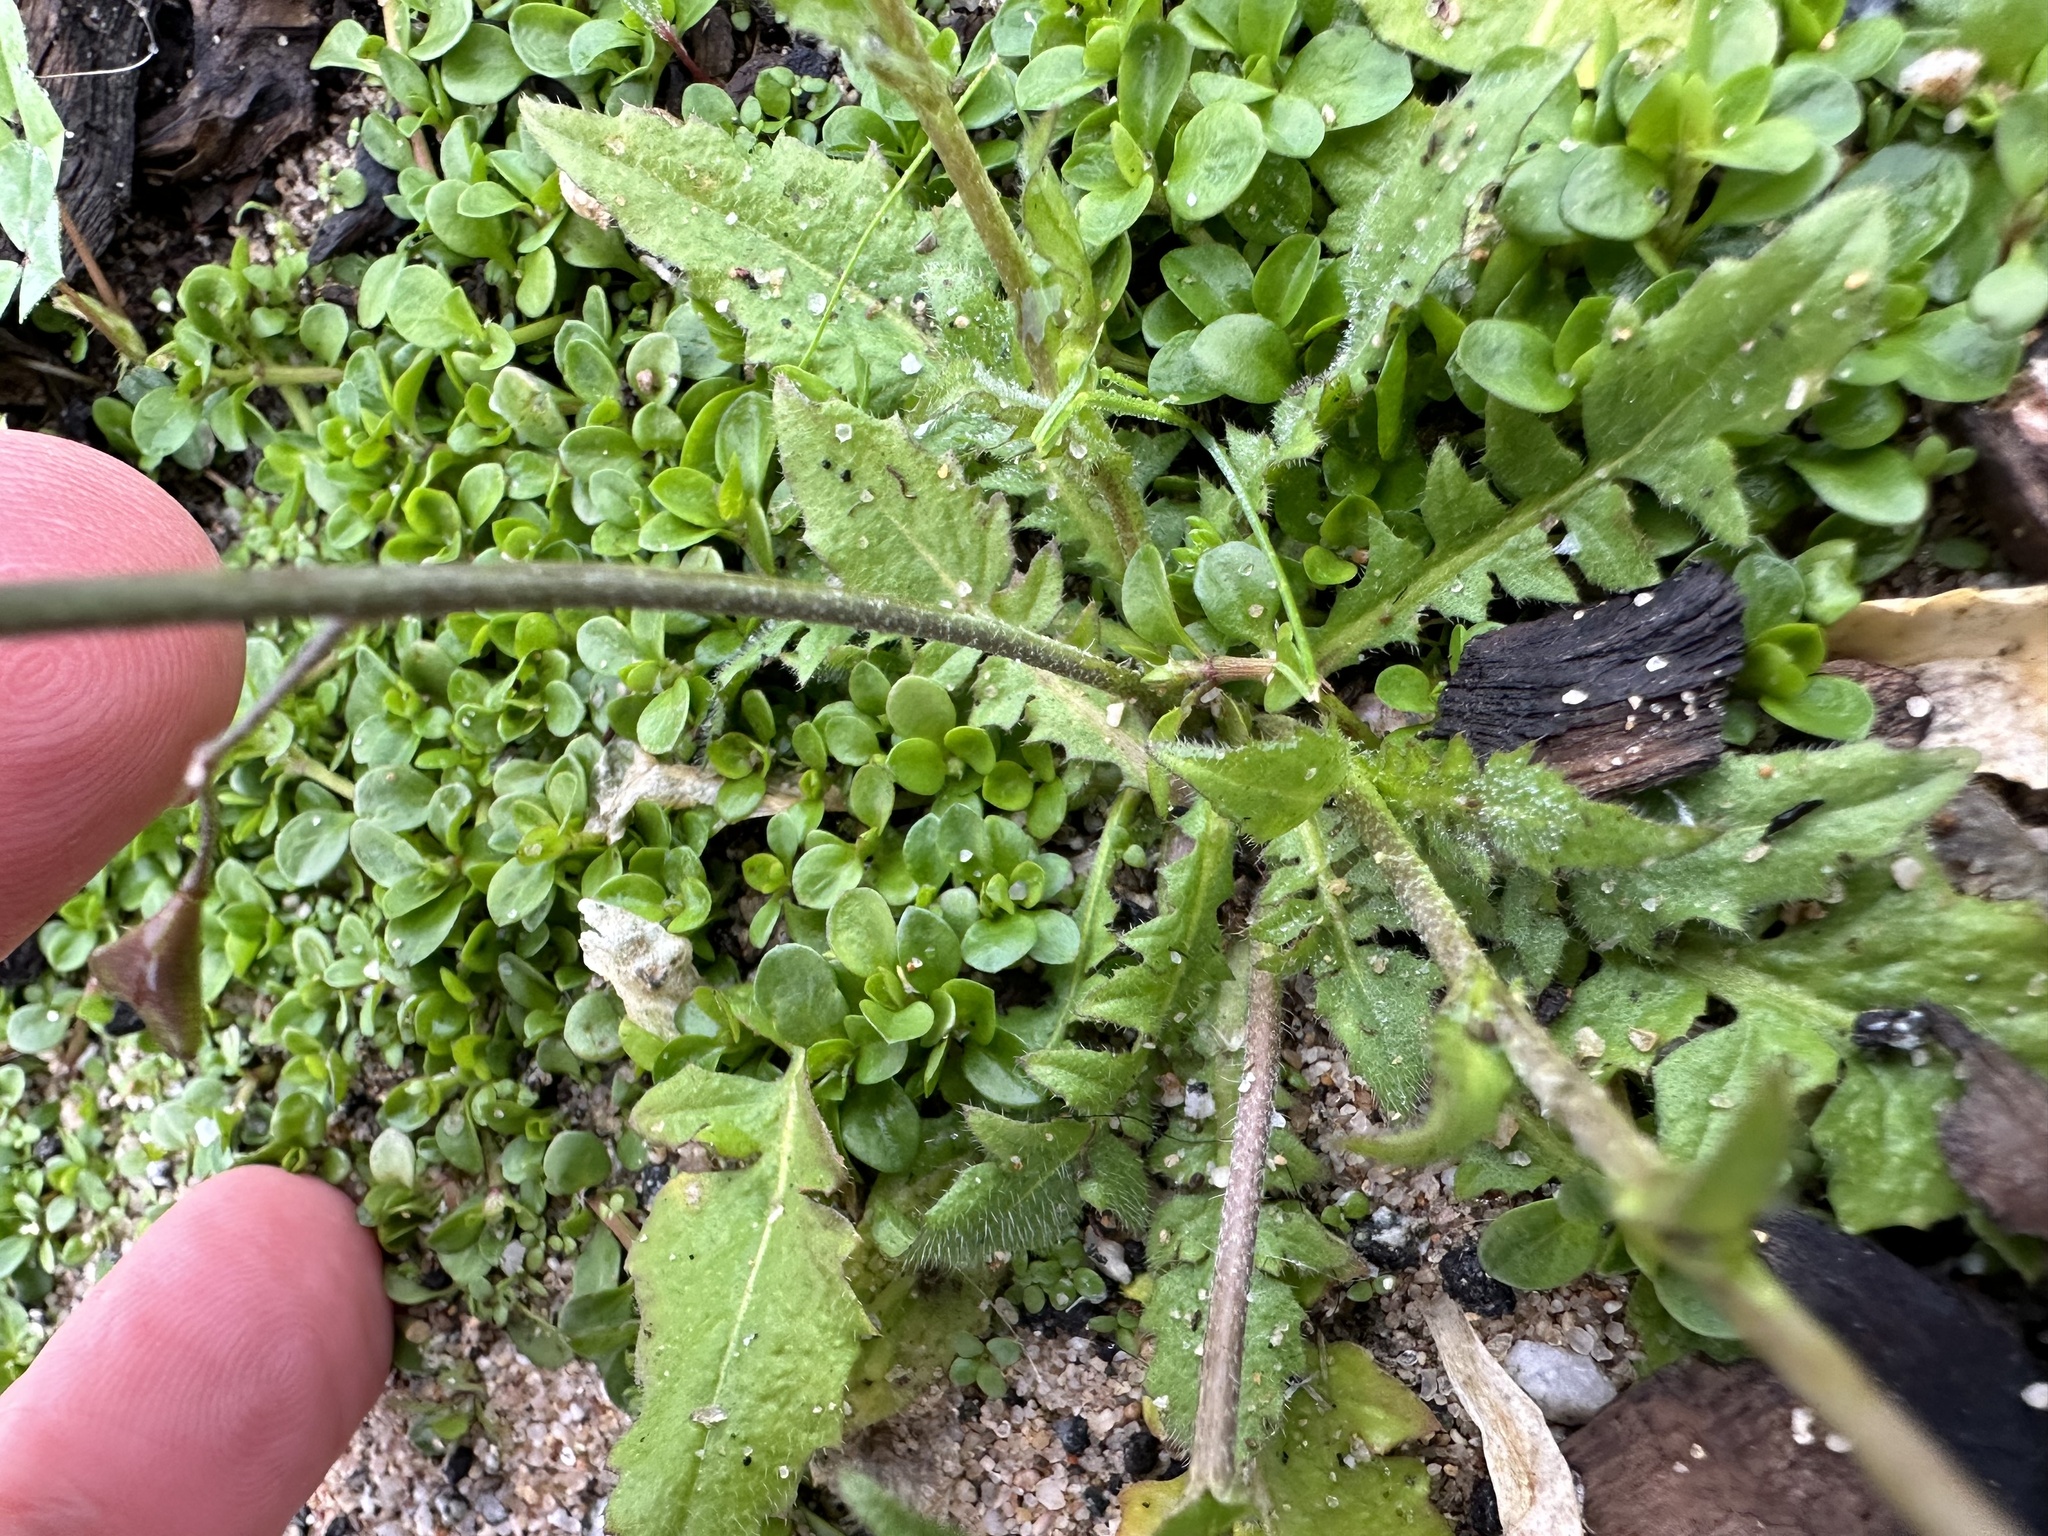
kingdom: Plantae
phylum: Tracheophyta
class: Magnoliopsida
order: Brassicales
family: Brassicaceae
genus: Capsella
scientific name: Capsella bursa-pastoris
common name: Shepherd's purse
